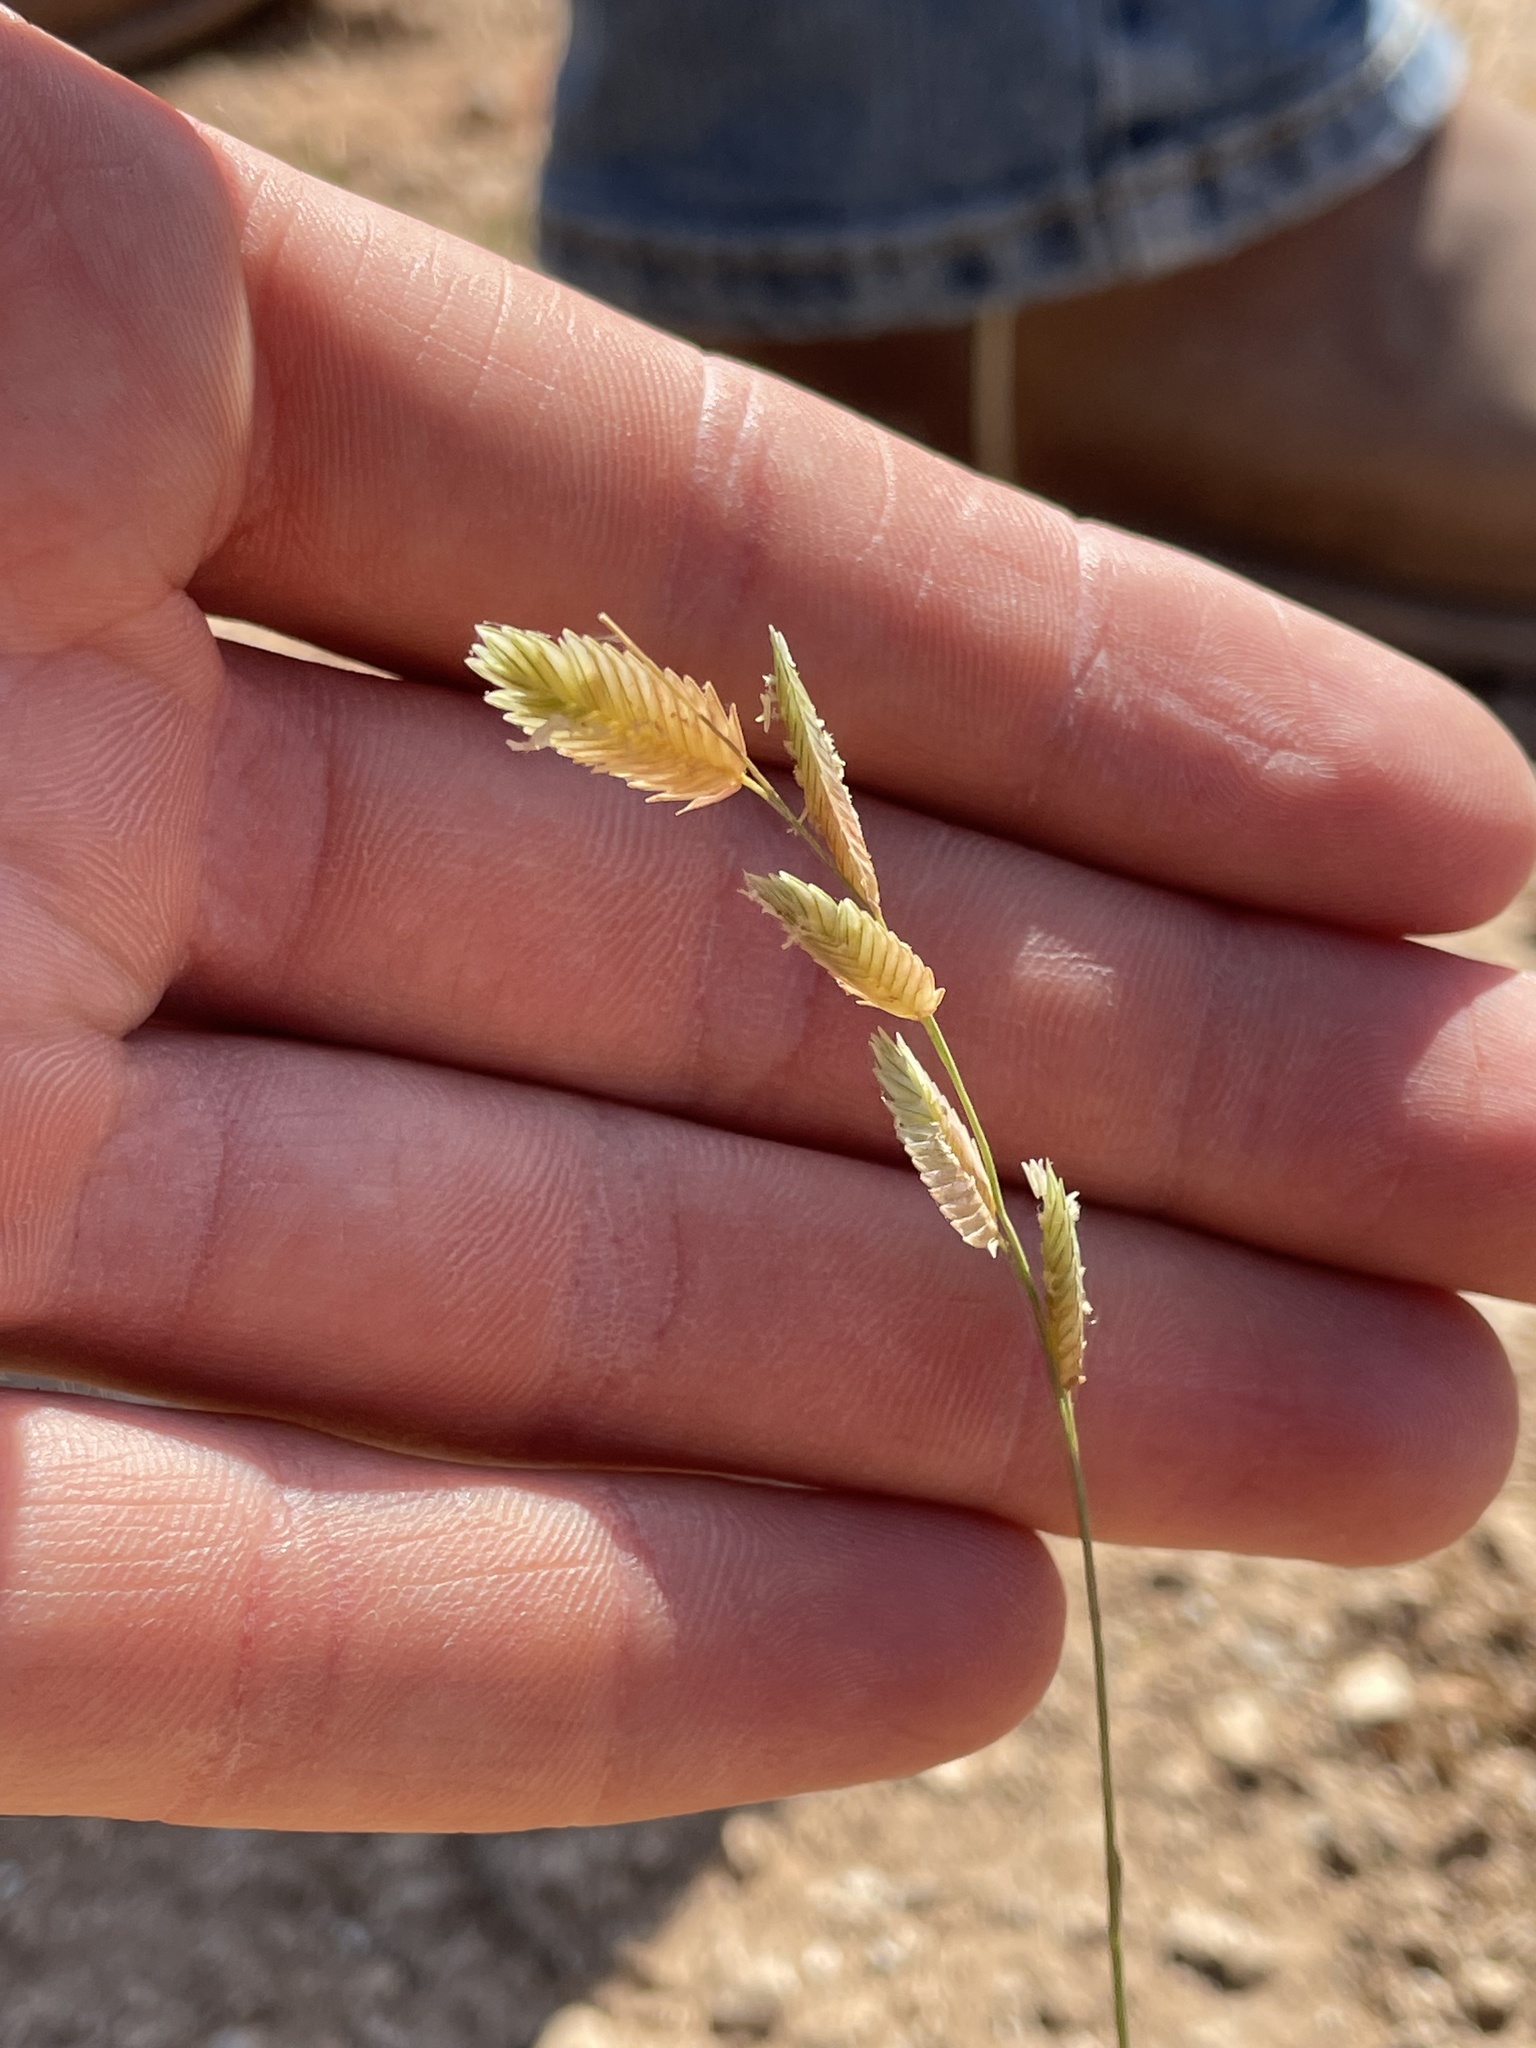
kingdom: Plantae
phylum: Tracheophyta
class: Liliopsida
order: Poales
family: Poaceae
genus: Eragrostis
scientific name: Eragrostis superba
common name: Wilman lovegrass
